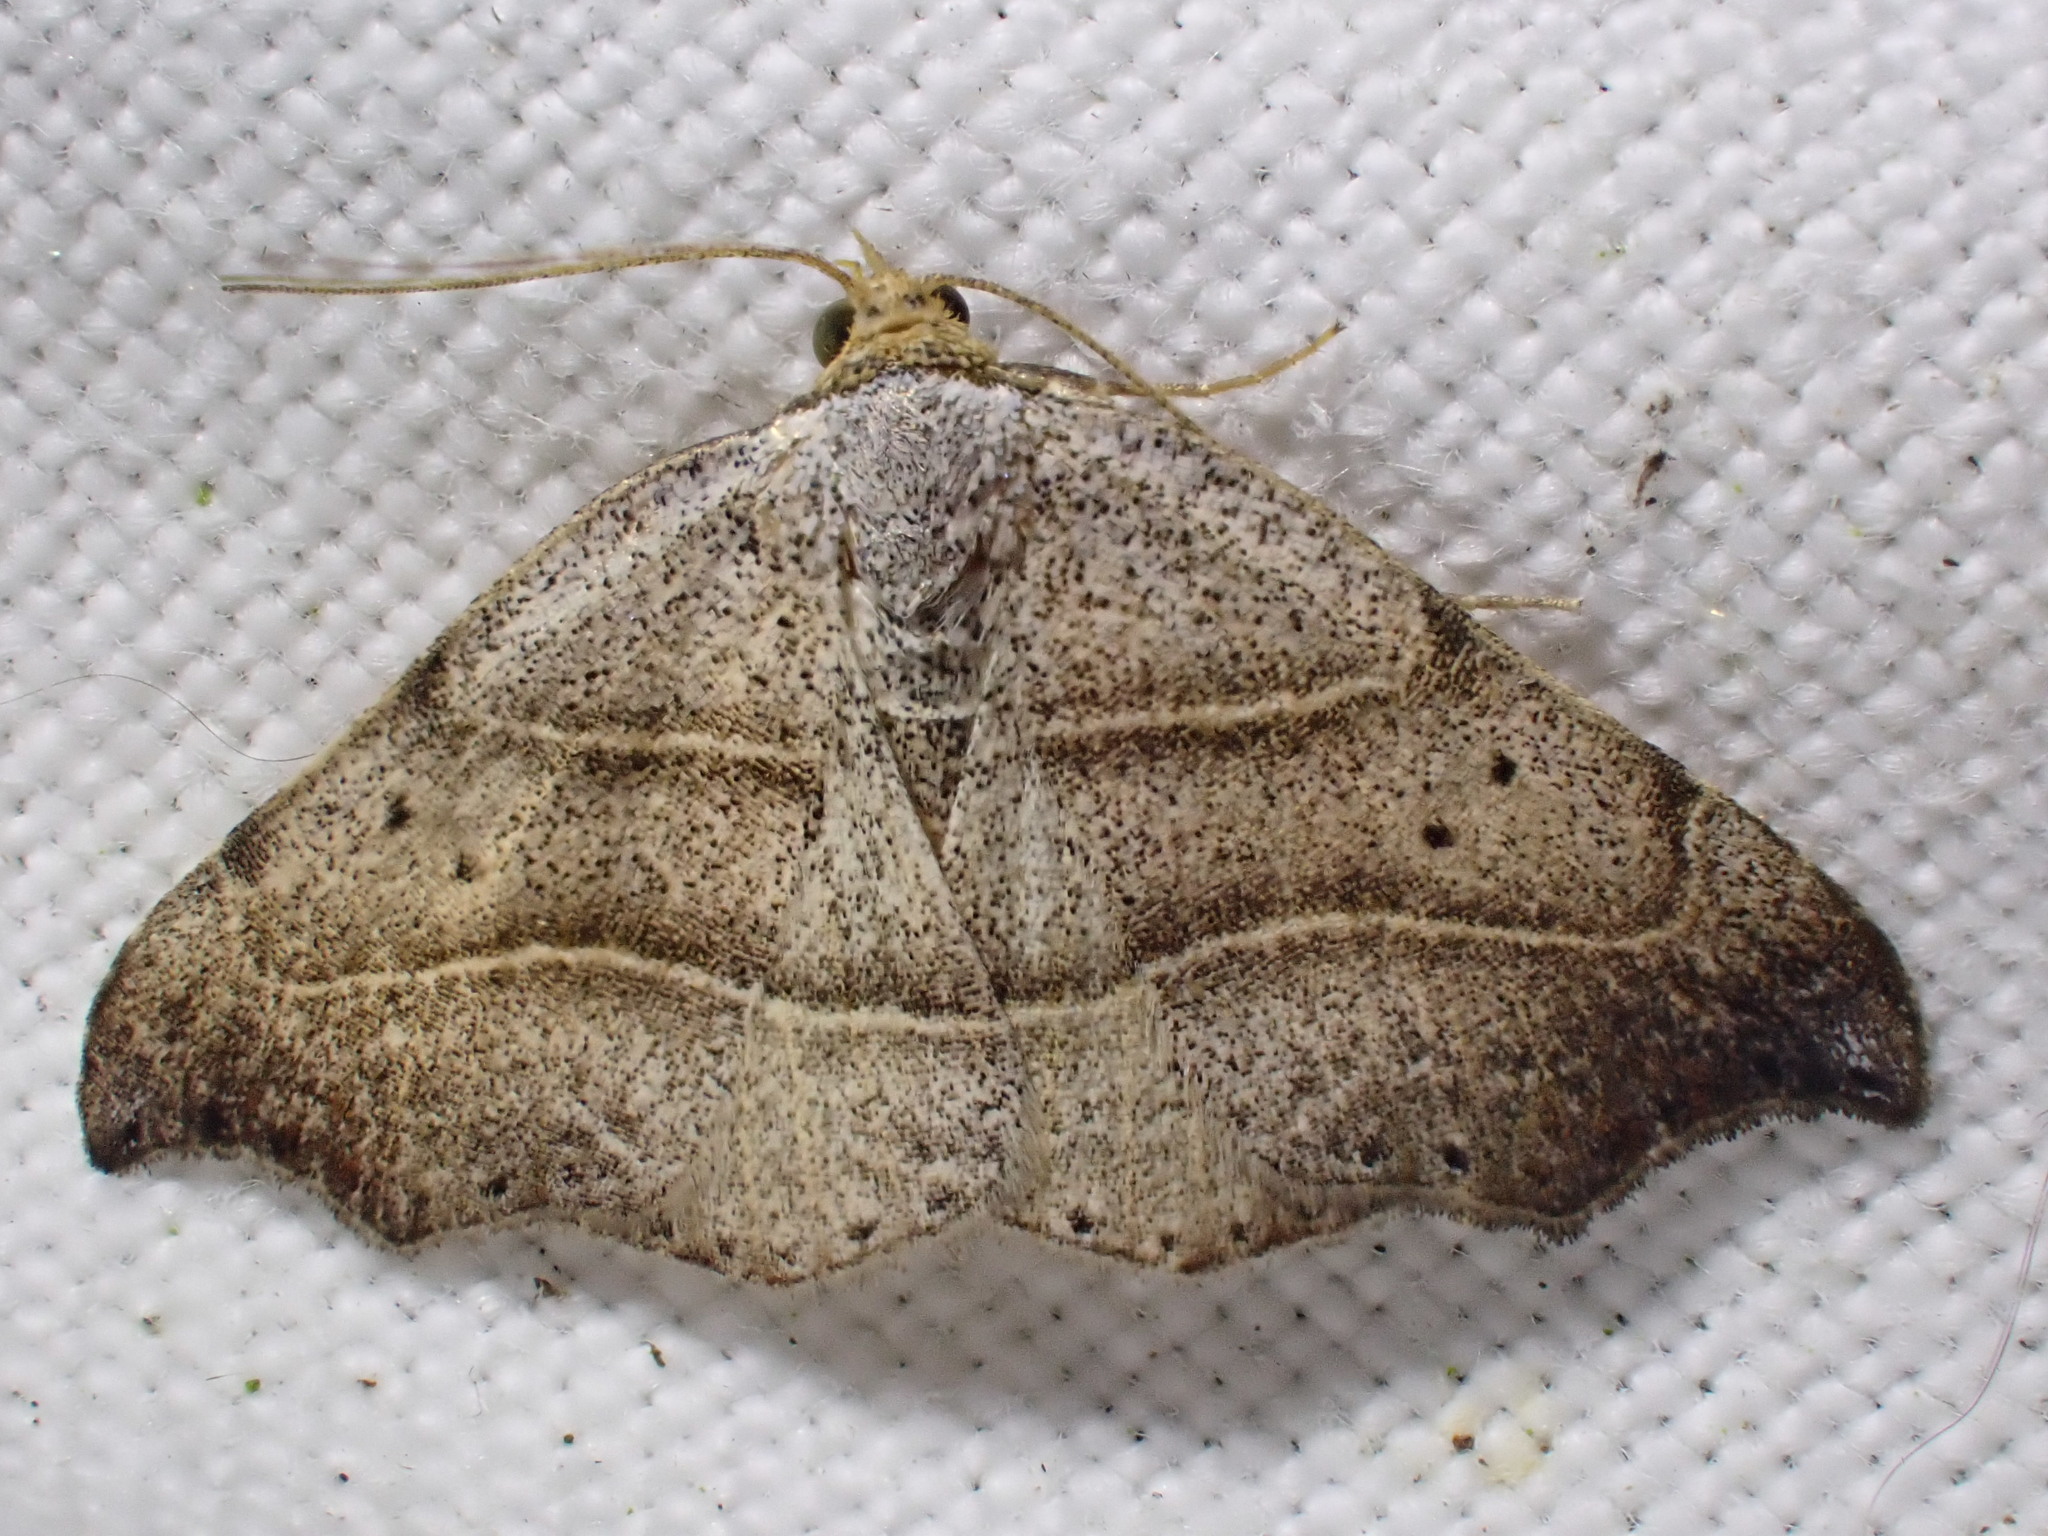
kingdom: Animalia
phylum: Arthropoda
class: Insecta
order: Lepidoptera
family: Erebidae
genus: Laspeyria
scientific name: Laspeyria flexula
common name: Beautiful hook-tip
